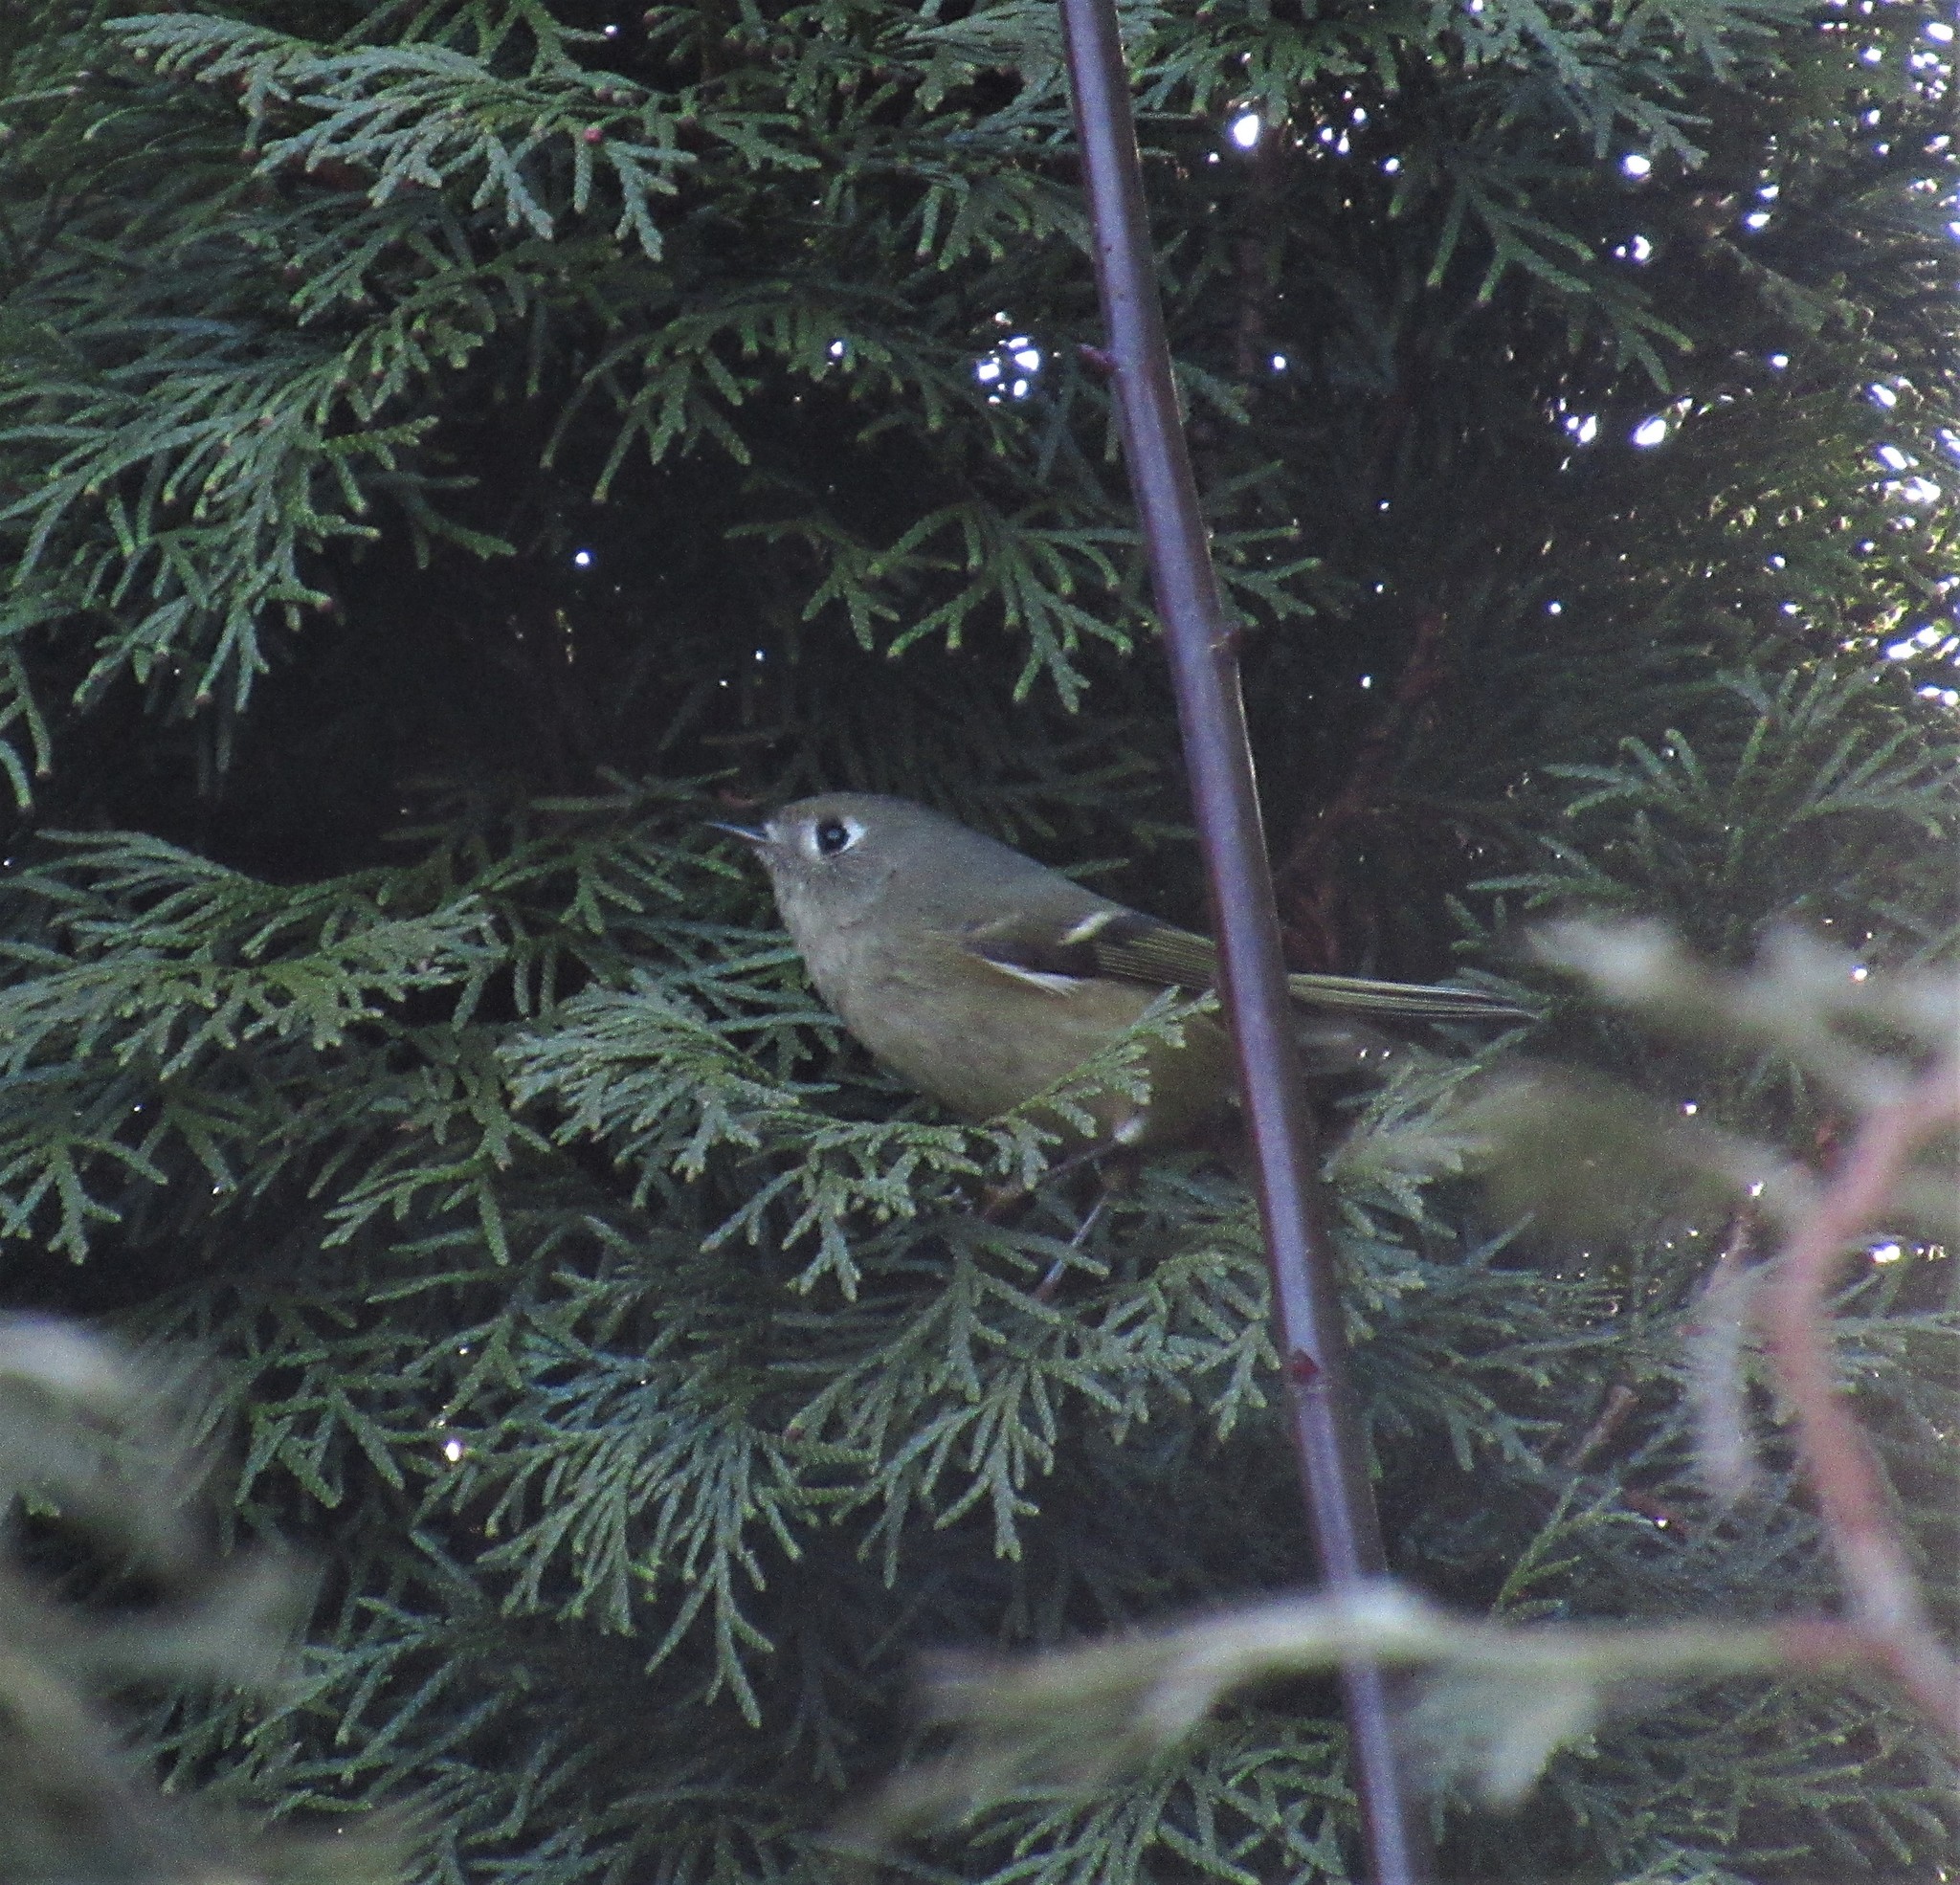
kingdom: Animalia
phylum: Chordata
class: Aves
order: Passeriformes
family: Regulidae
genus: Regulus
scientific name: Regulus calendula
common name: Ruby-crowned kinglet
